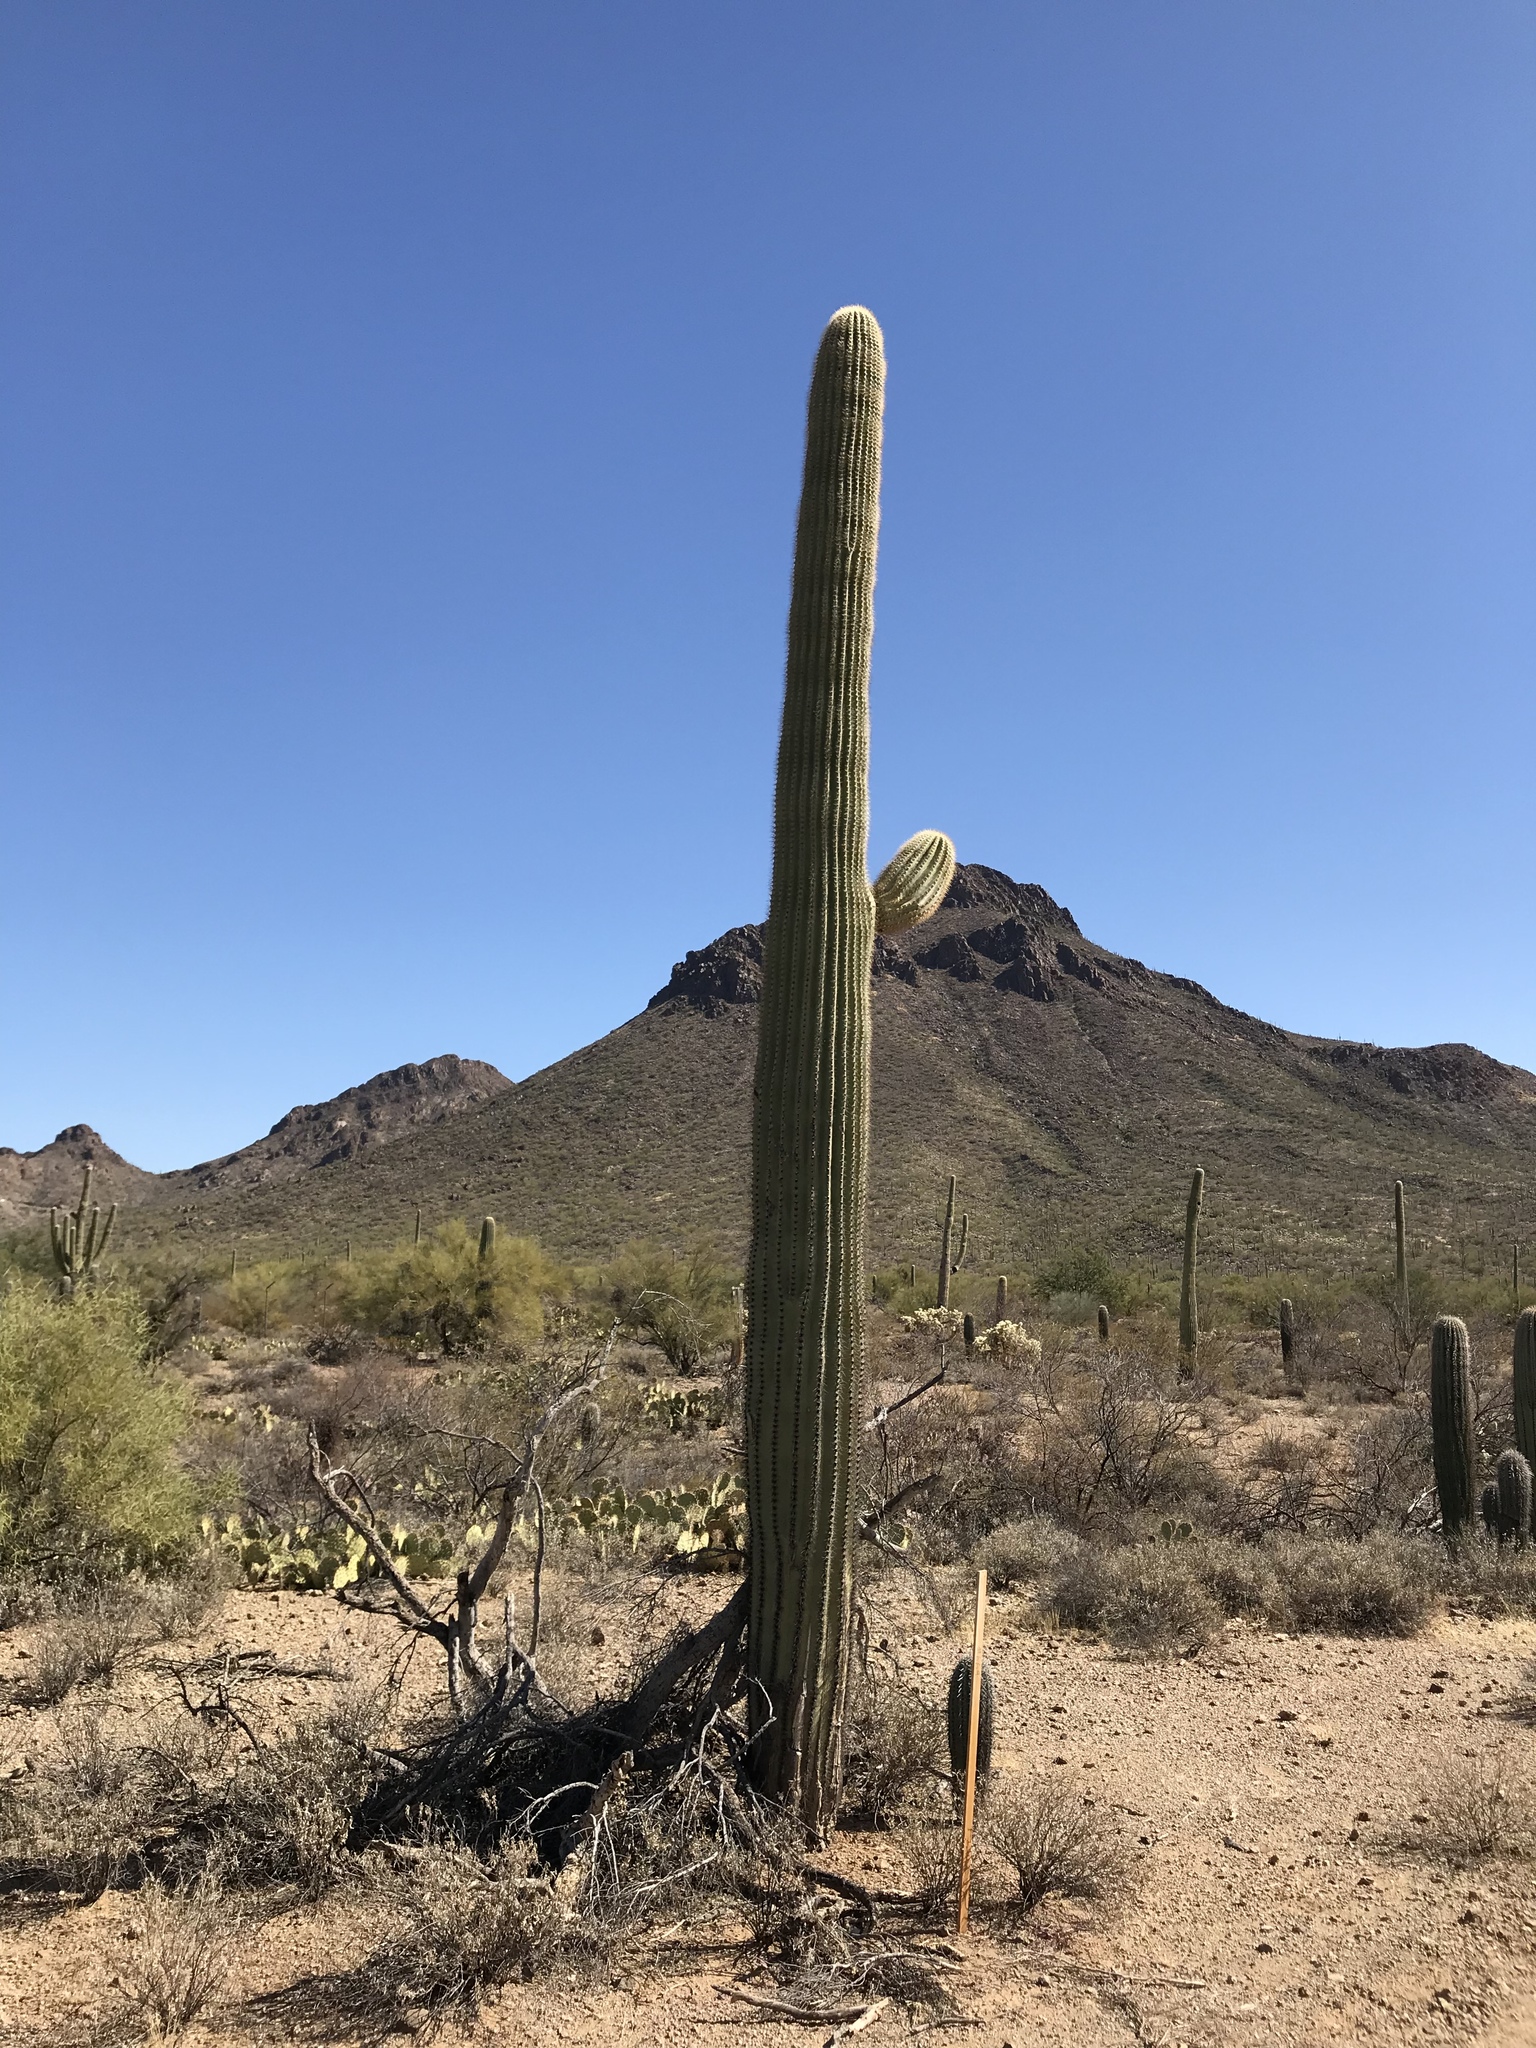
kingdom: Plantae
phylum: Tracheophyta
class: Magnoliopsida
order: Caryophyllales
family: Cactaceae
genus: Carnegiea
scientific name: Carnegiea gigantea
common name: Saguaro
